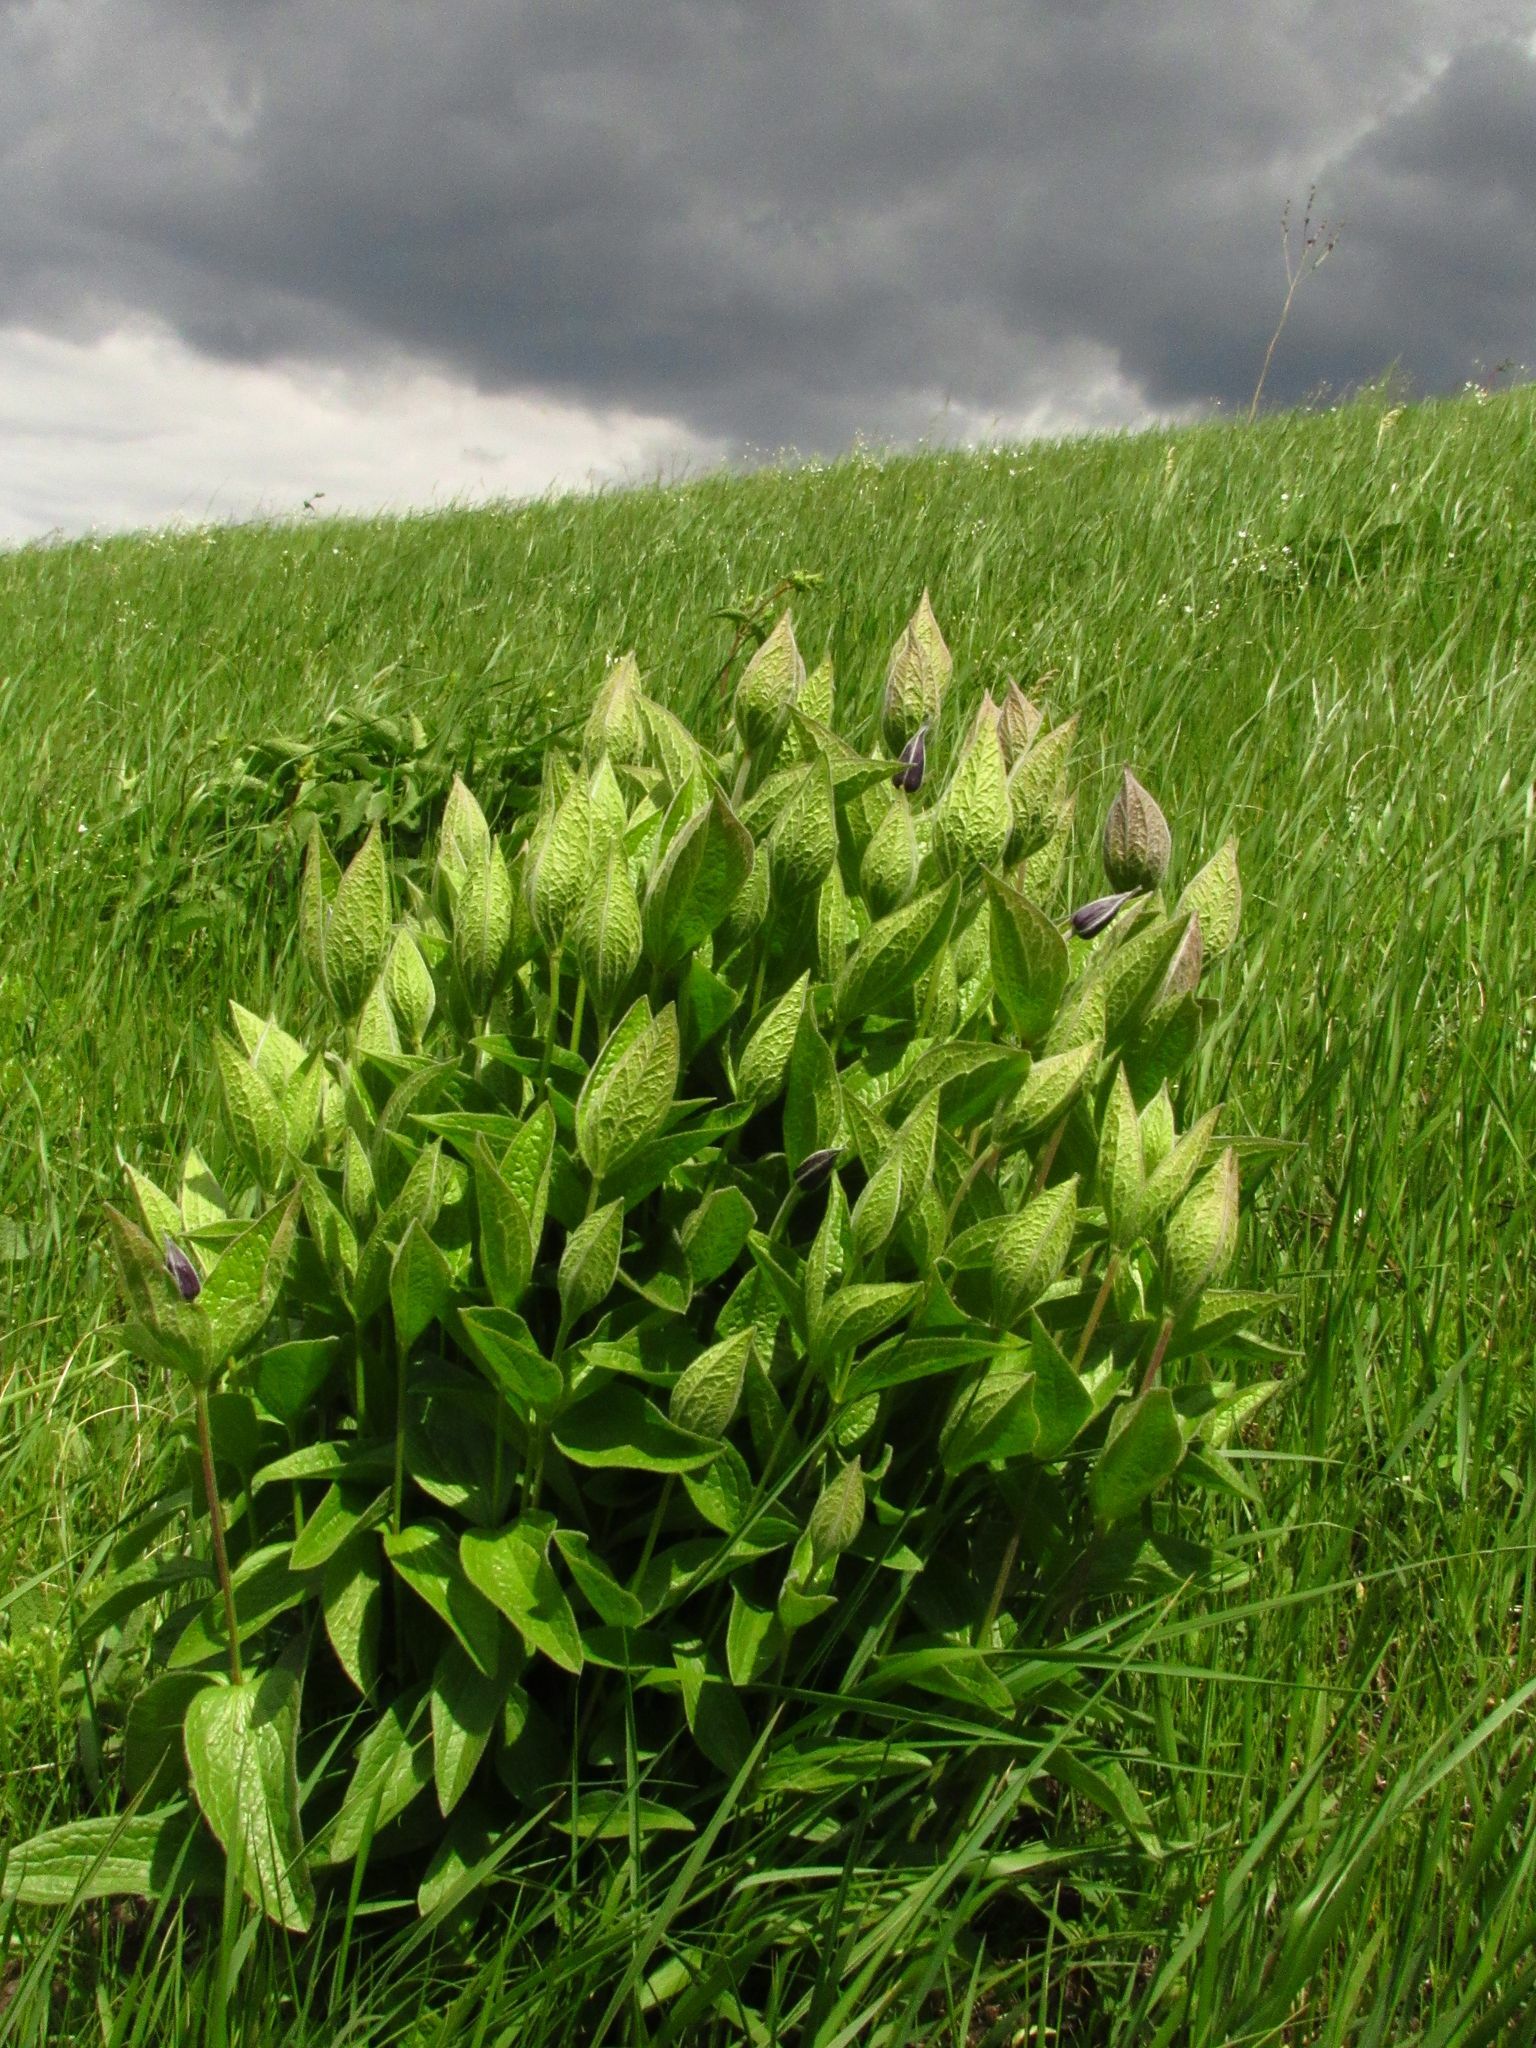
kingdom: Plantae
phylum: Tracheophyta
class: Magnoliopsida
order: Ranunculales
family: Ranunculaceae
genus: Clematis
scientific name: Clematis integrifolia
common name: Solitary clematis
